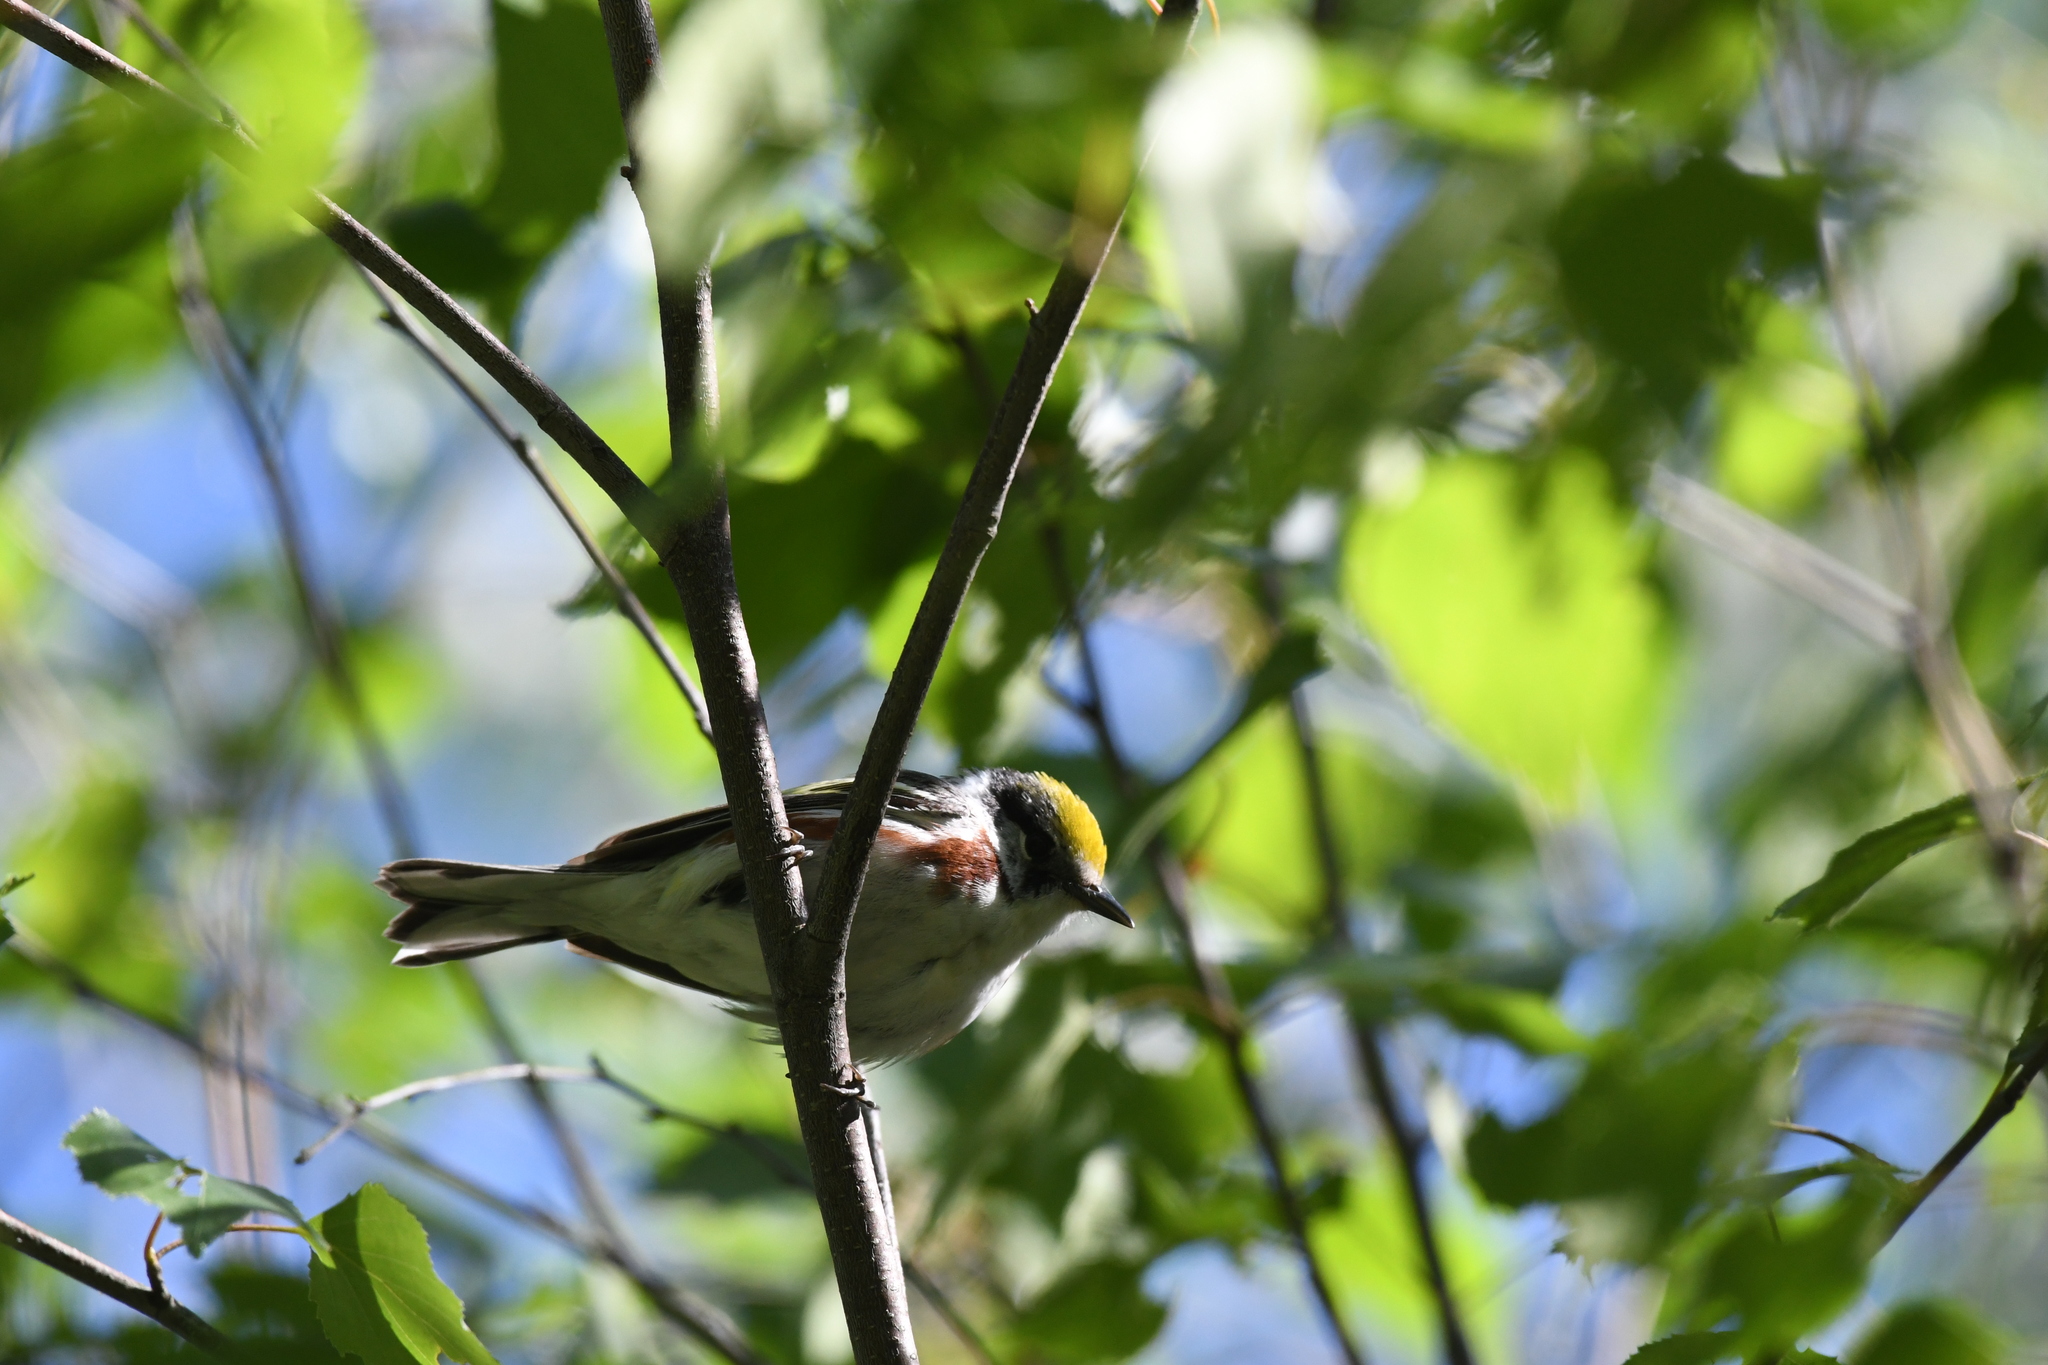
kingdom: Animalia
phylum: Chordata
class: Aves
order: Passeriformes
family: Parulidae
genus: Setophaga
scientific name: Setophaga pensylvanica
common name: Chestnut-sided warbler
